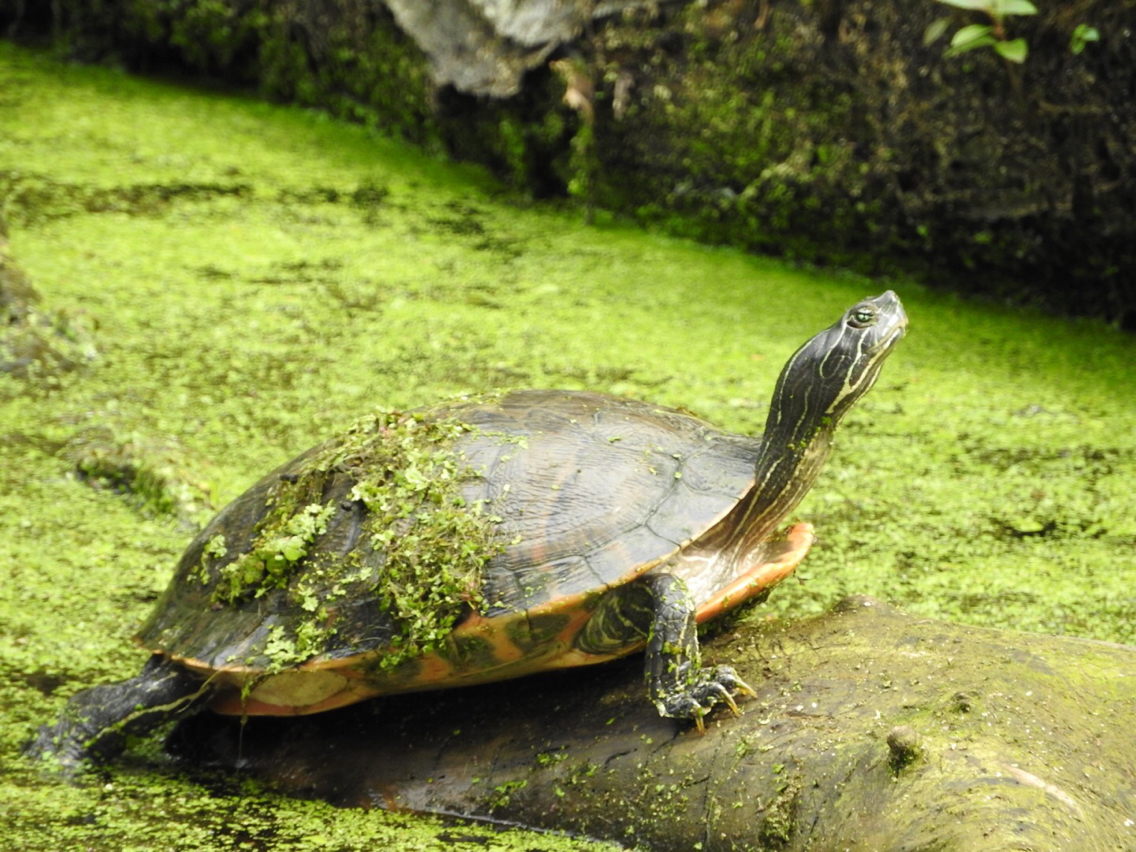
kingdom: Animalia
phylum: Chordata
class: Testudines
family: Emydidae
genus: Pseudemys
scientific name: Pseudemys rubriventris
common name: American red-bellied turtle
